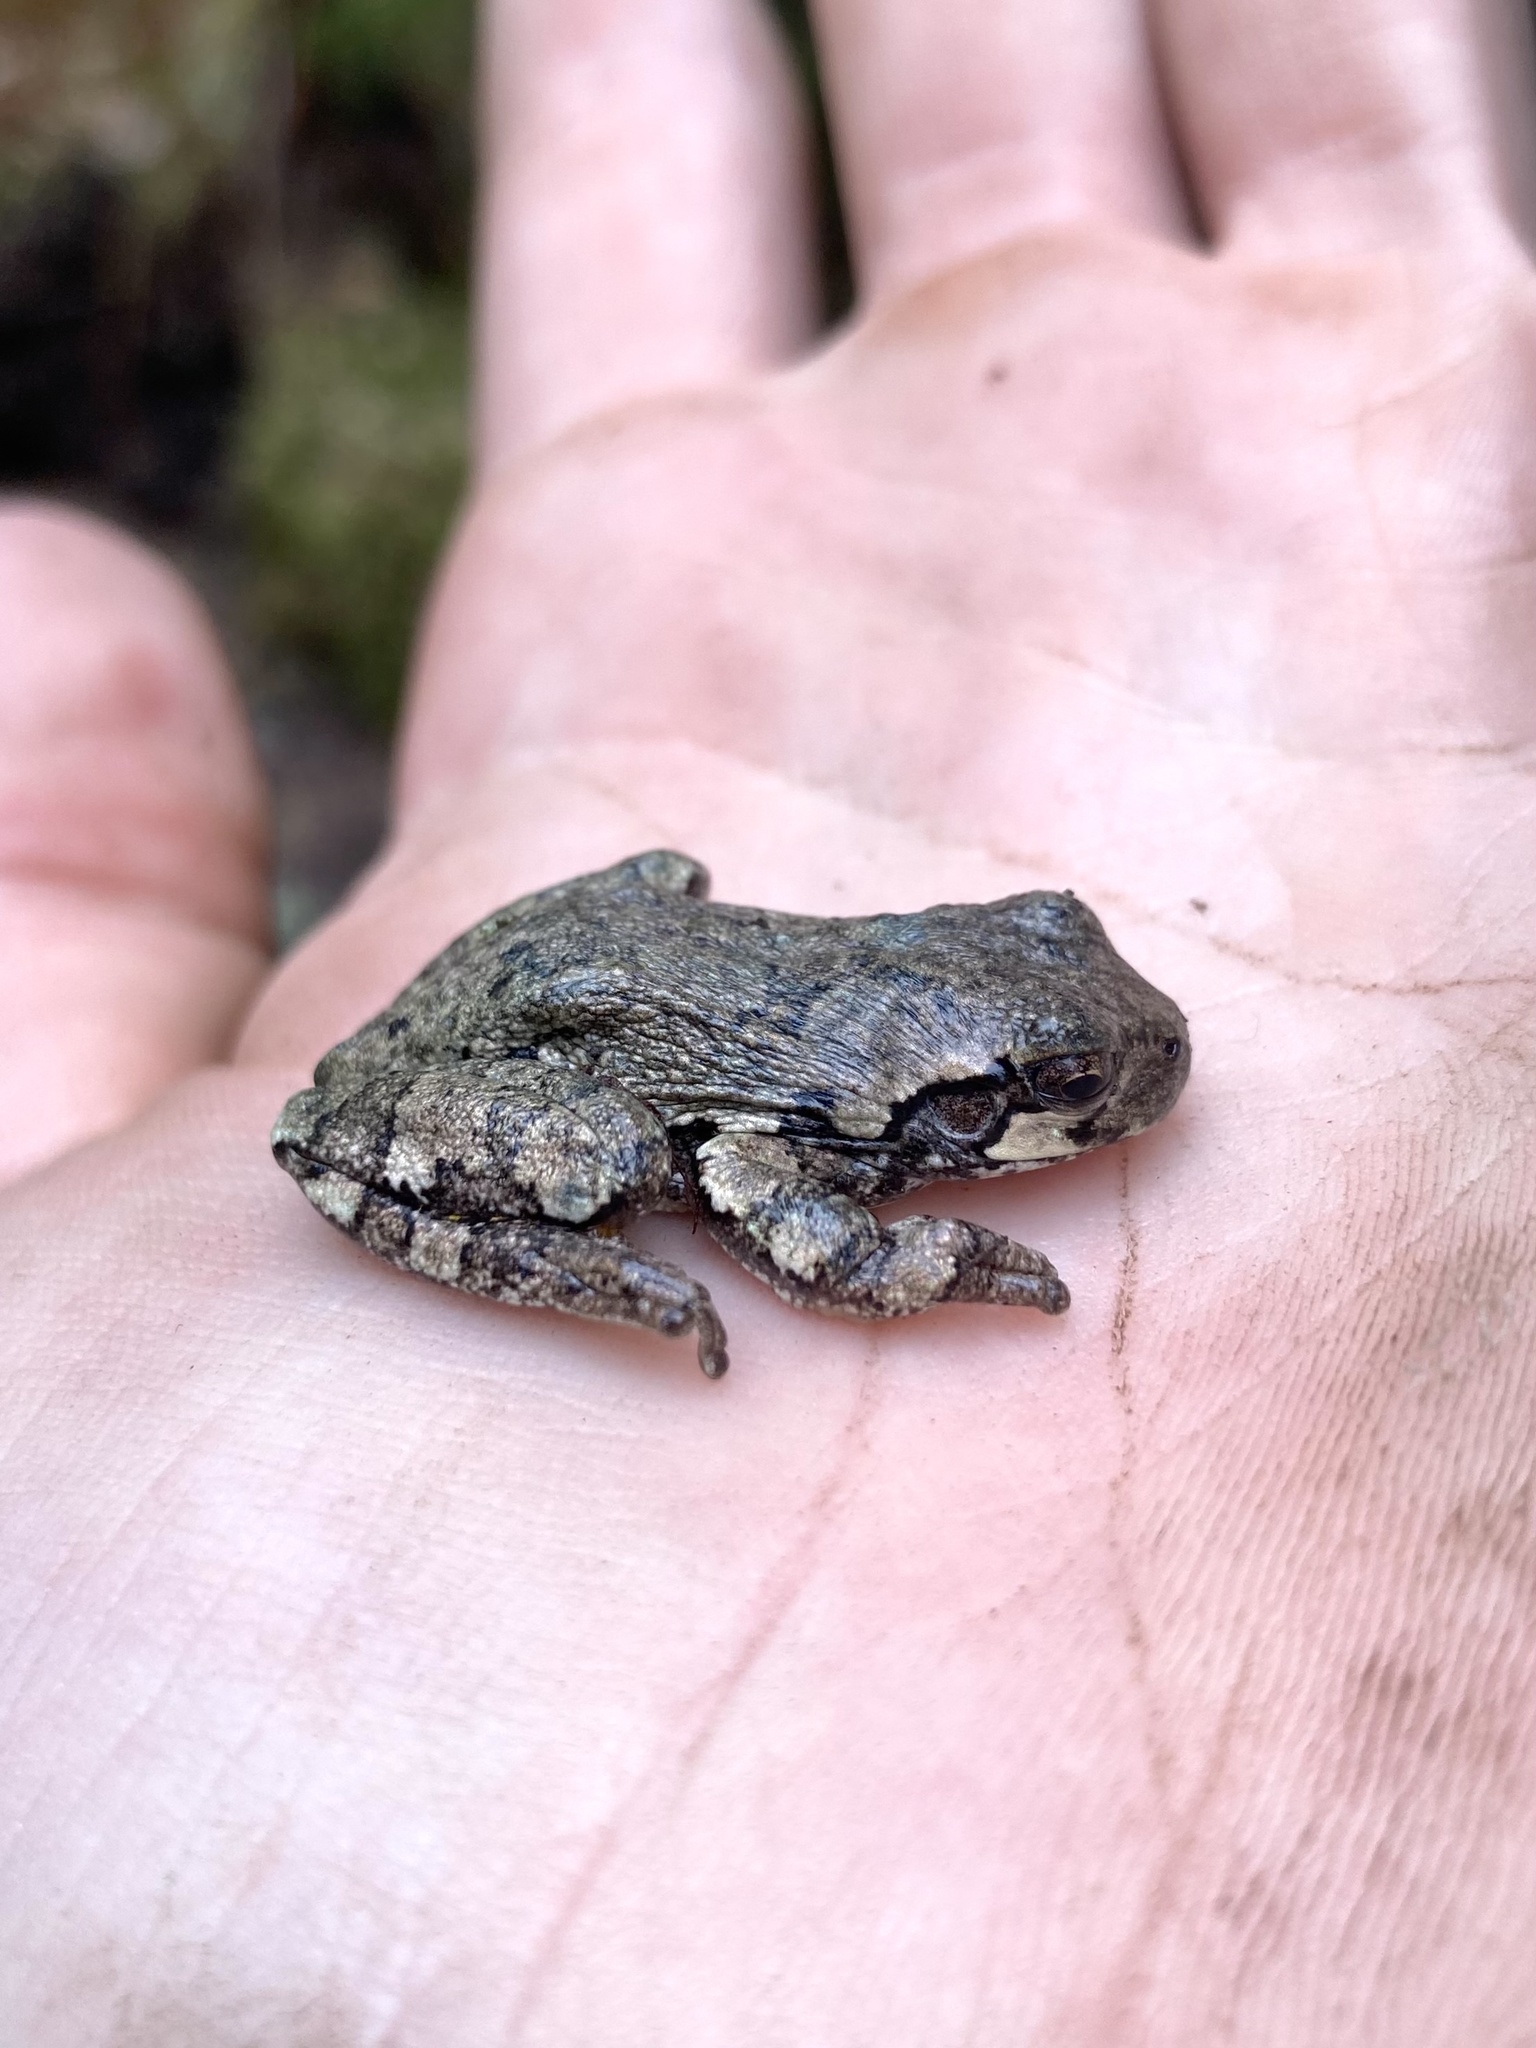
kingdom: Animalia
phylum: Chordata
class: Amphibia
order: Anura
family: Hylidae
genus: Dryophytes
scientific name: Dryophytes versicolor
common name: Gray treefrog
